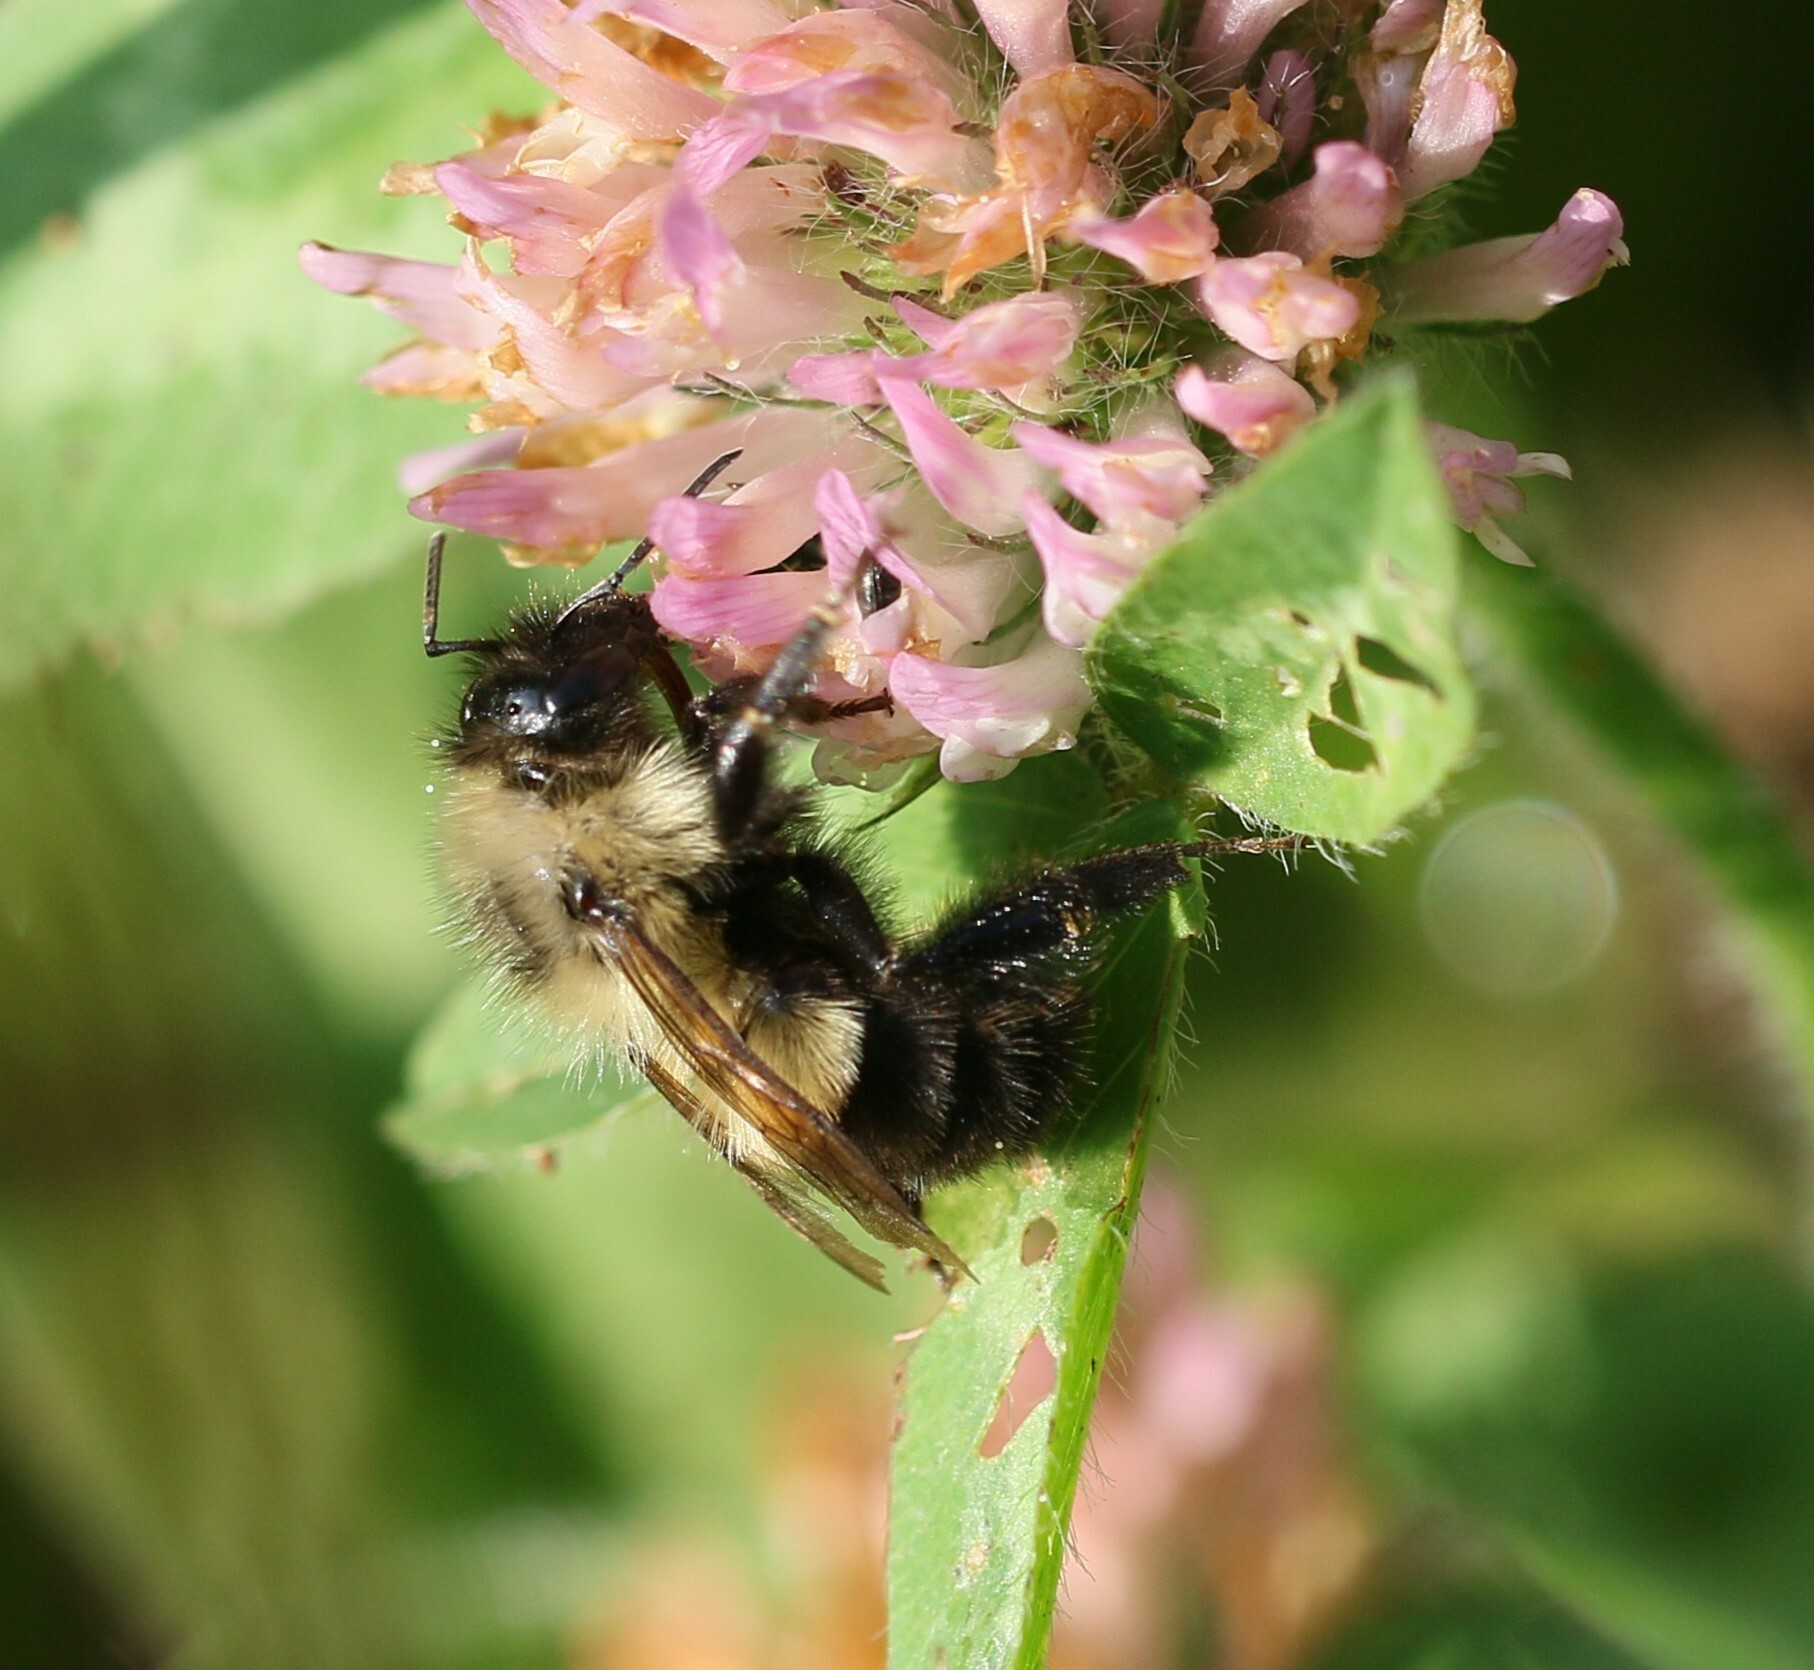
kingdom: Animalia
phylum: Arthropoda
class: Insecta
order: Hymenoptera
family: Apidae
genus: Bombus
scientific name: Bombus vagans
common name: Half-black bumble bee
